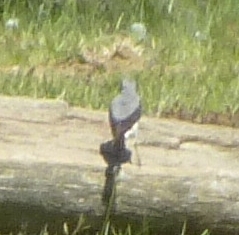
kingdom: Animalia
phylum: Chordata
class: Aves
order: Passeriformes
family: Muscicapidae
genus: Oenanthe
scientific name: Oenanthe oenanthe
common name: Northern wheatear
